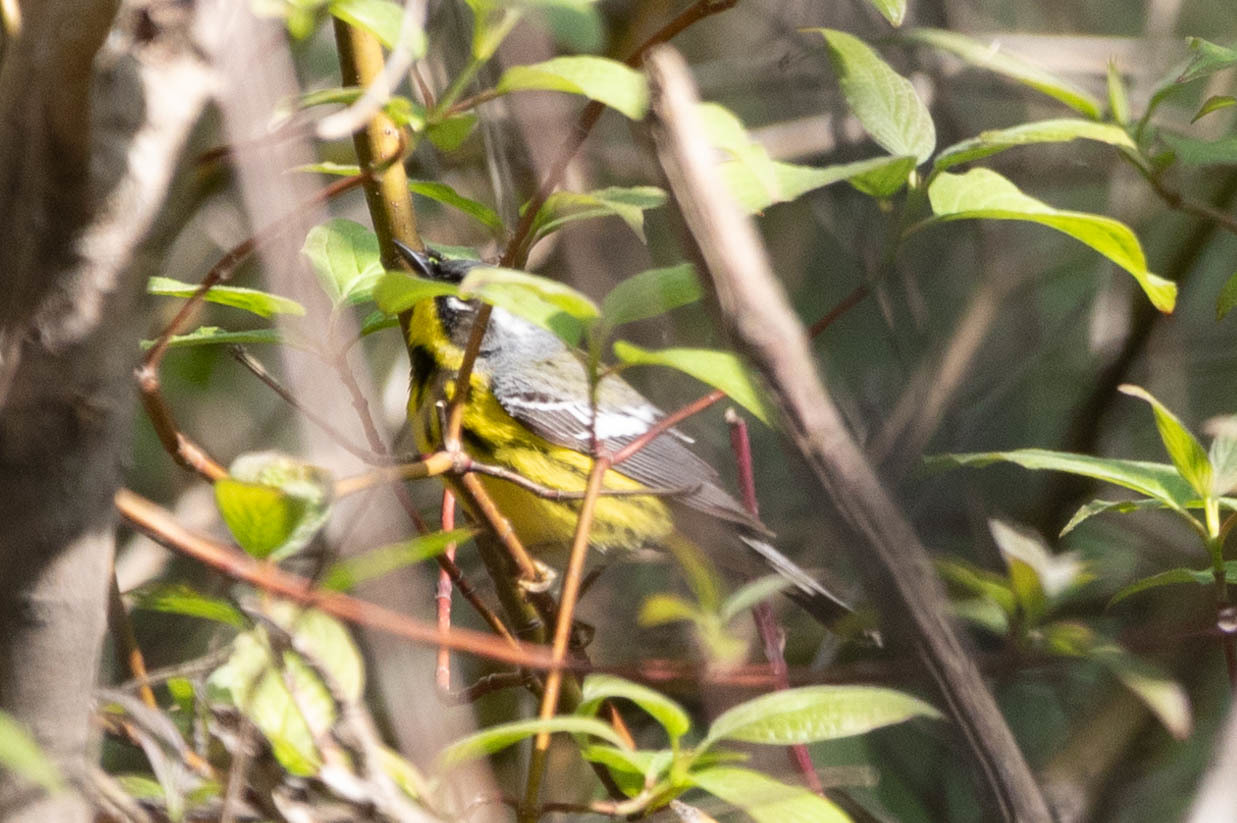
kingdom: Animalia
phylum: Chordata
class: Aves
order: Passeriformes
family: Parulidae
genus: Setophaga
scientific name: Setophaga magnolia
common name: Magnolia warbler
